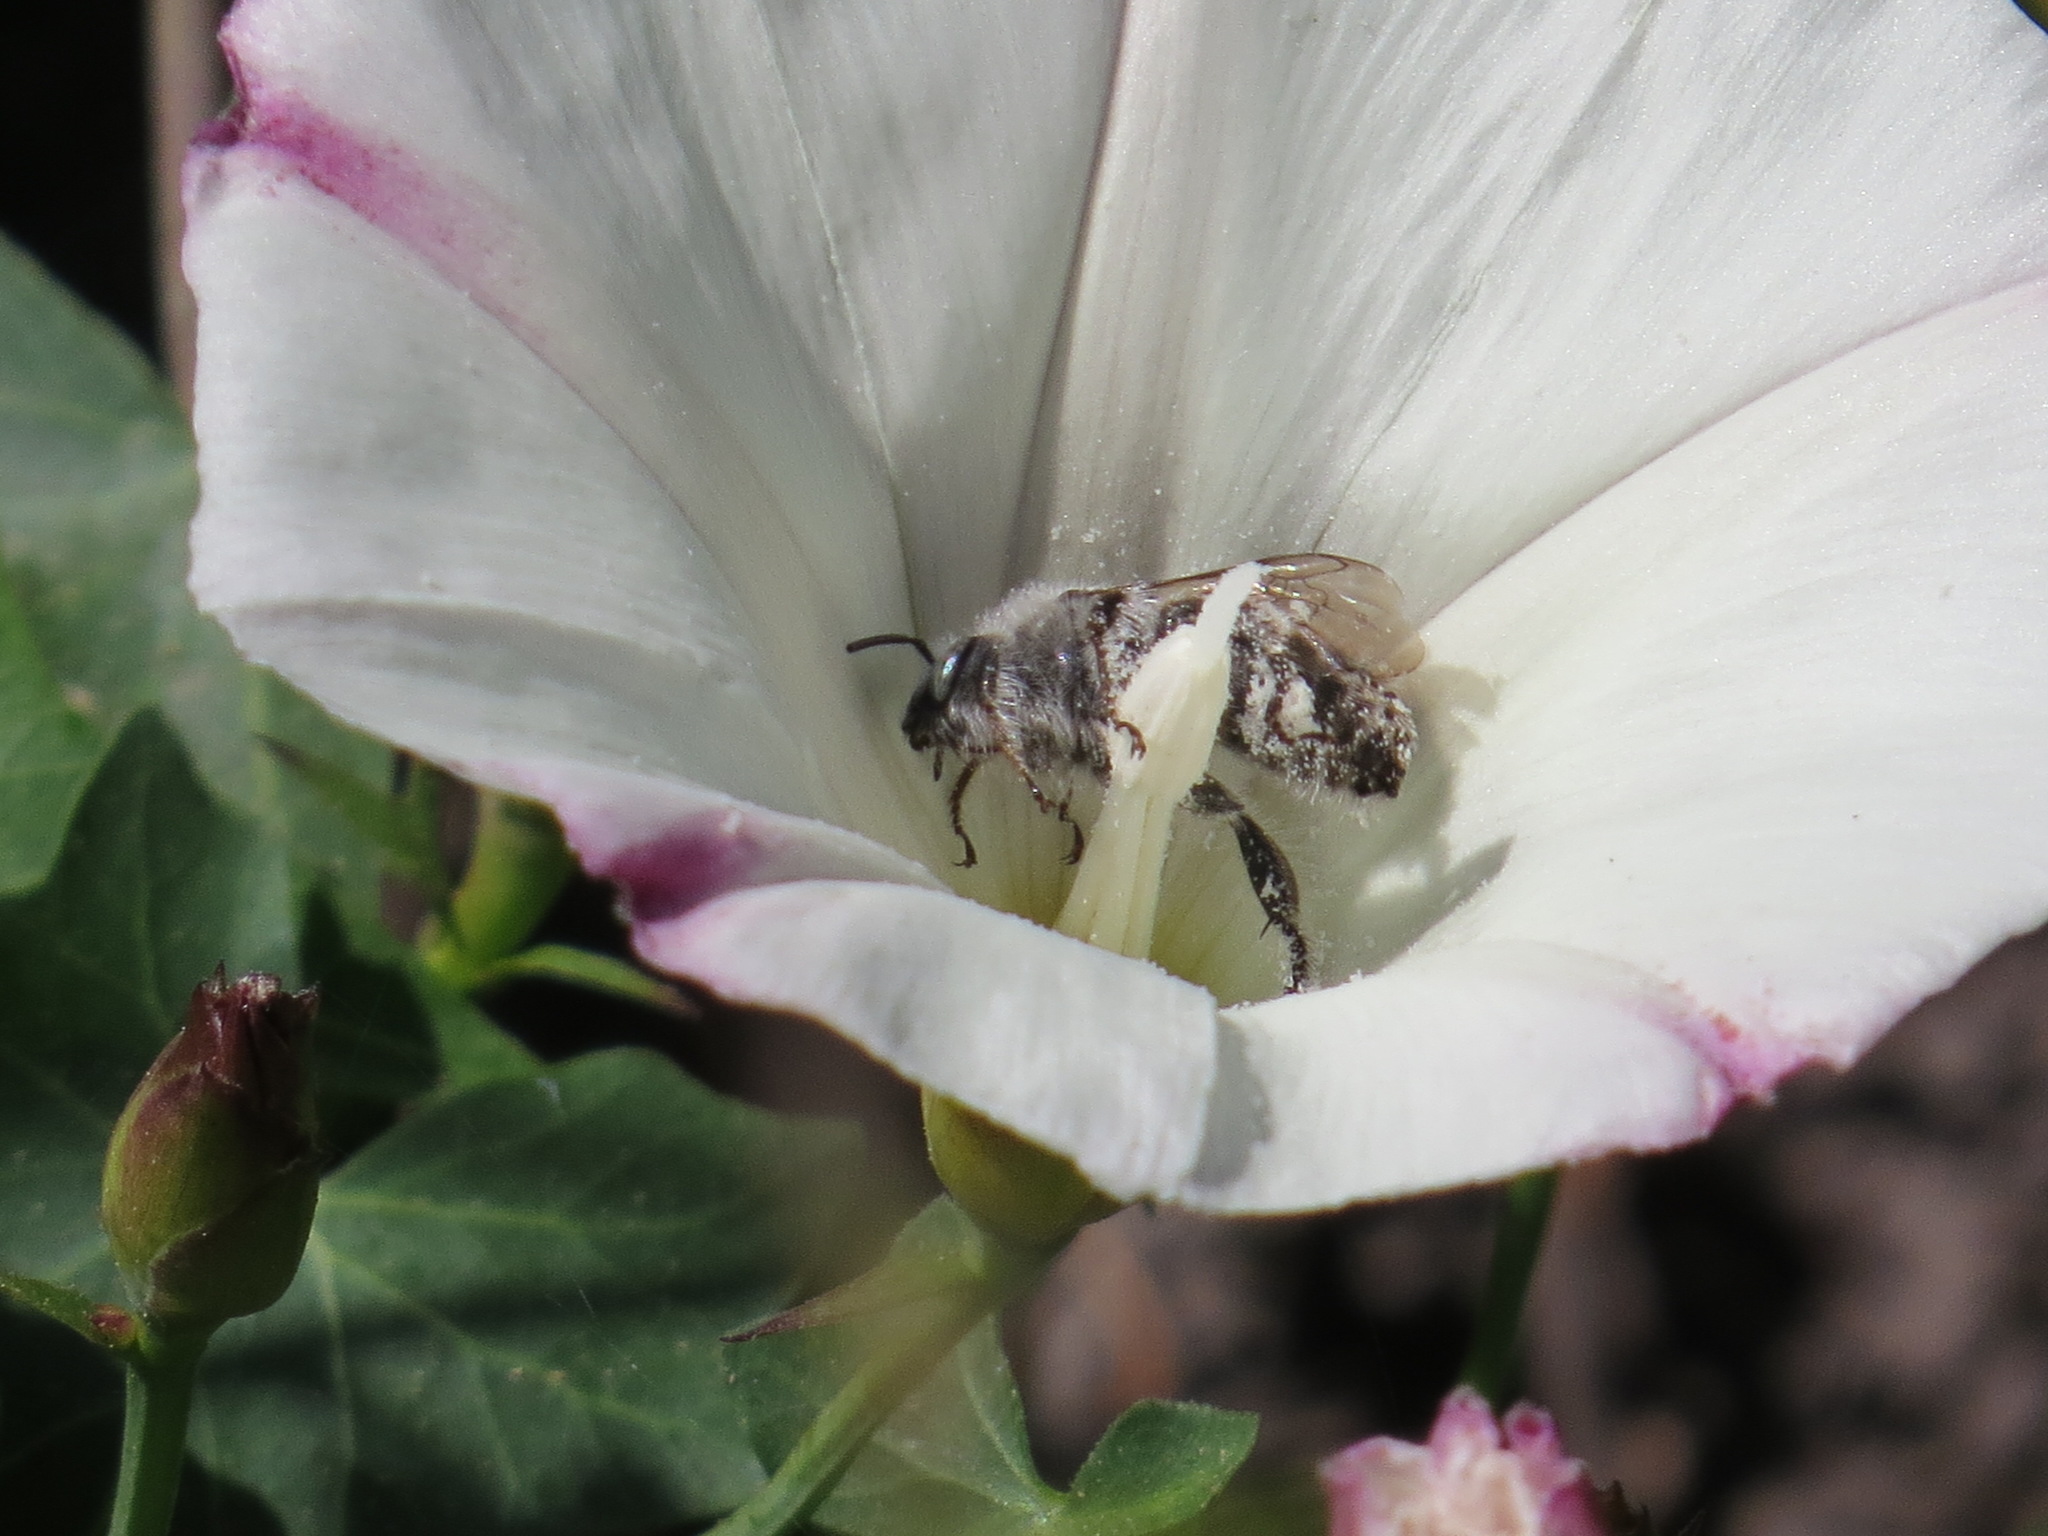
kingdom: Animalia
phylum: Arthropoda
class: Insecta
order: Hymenoptera
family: Apidae
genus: Diadasia
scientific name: Diadasia bituberculata
